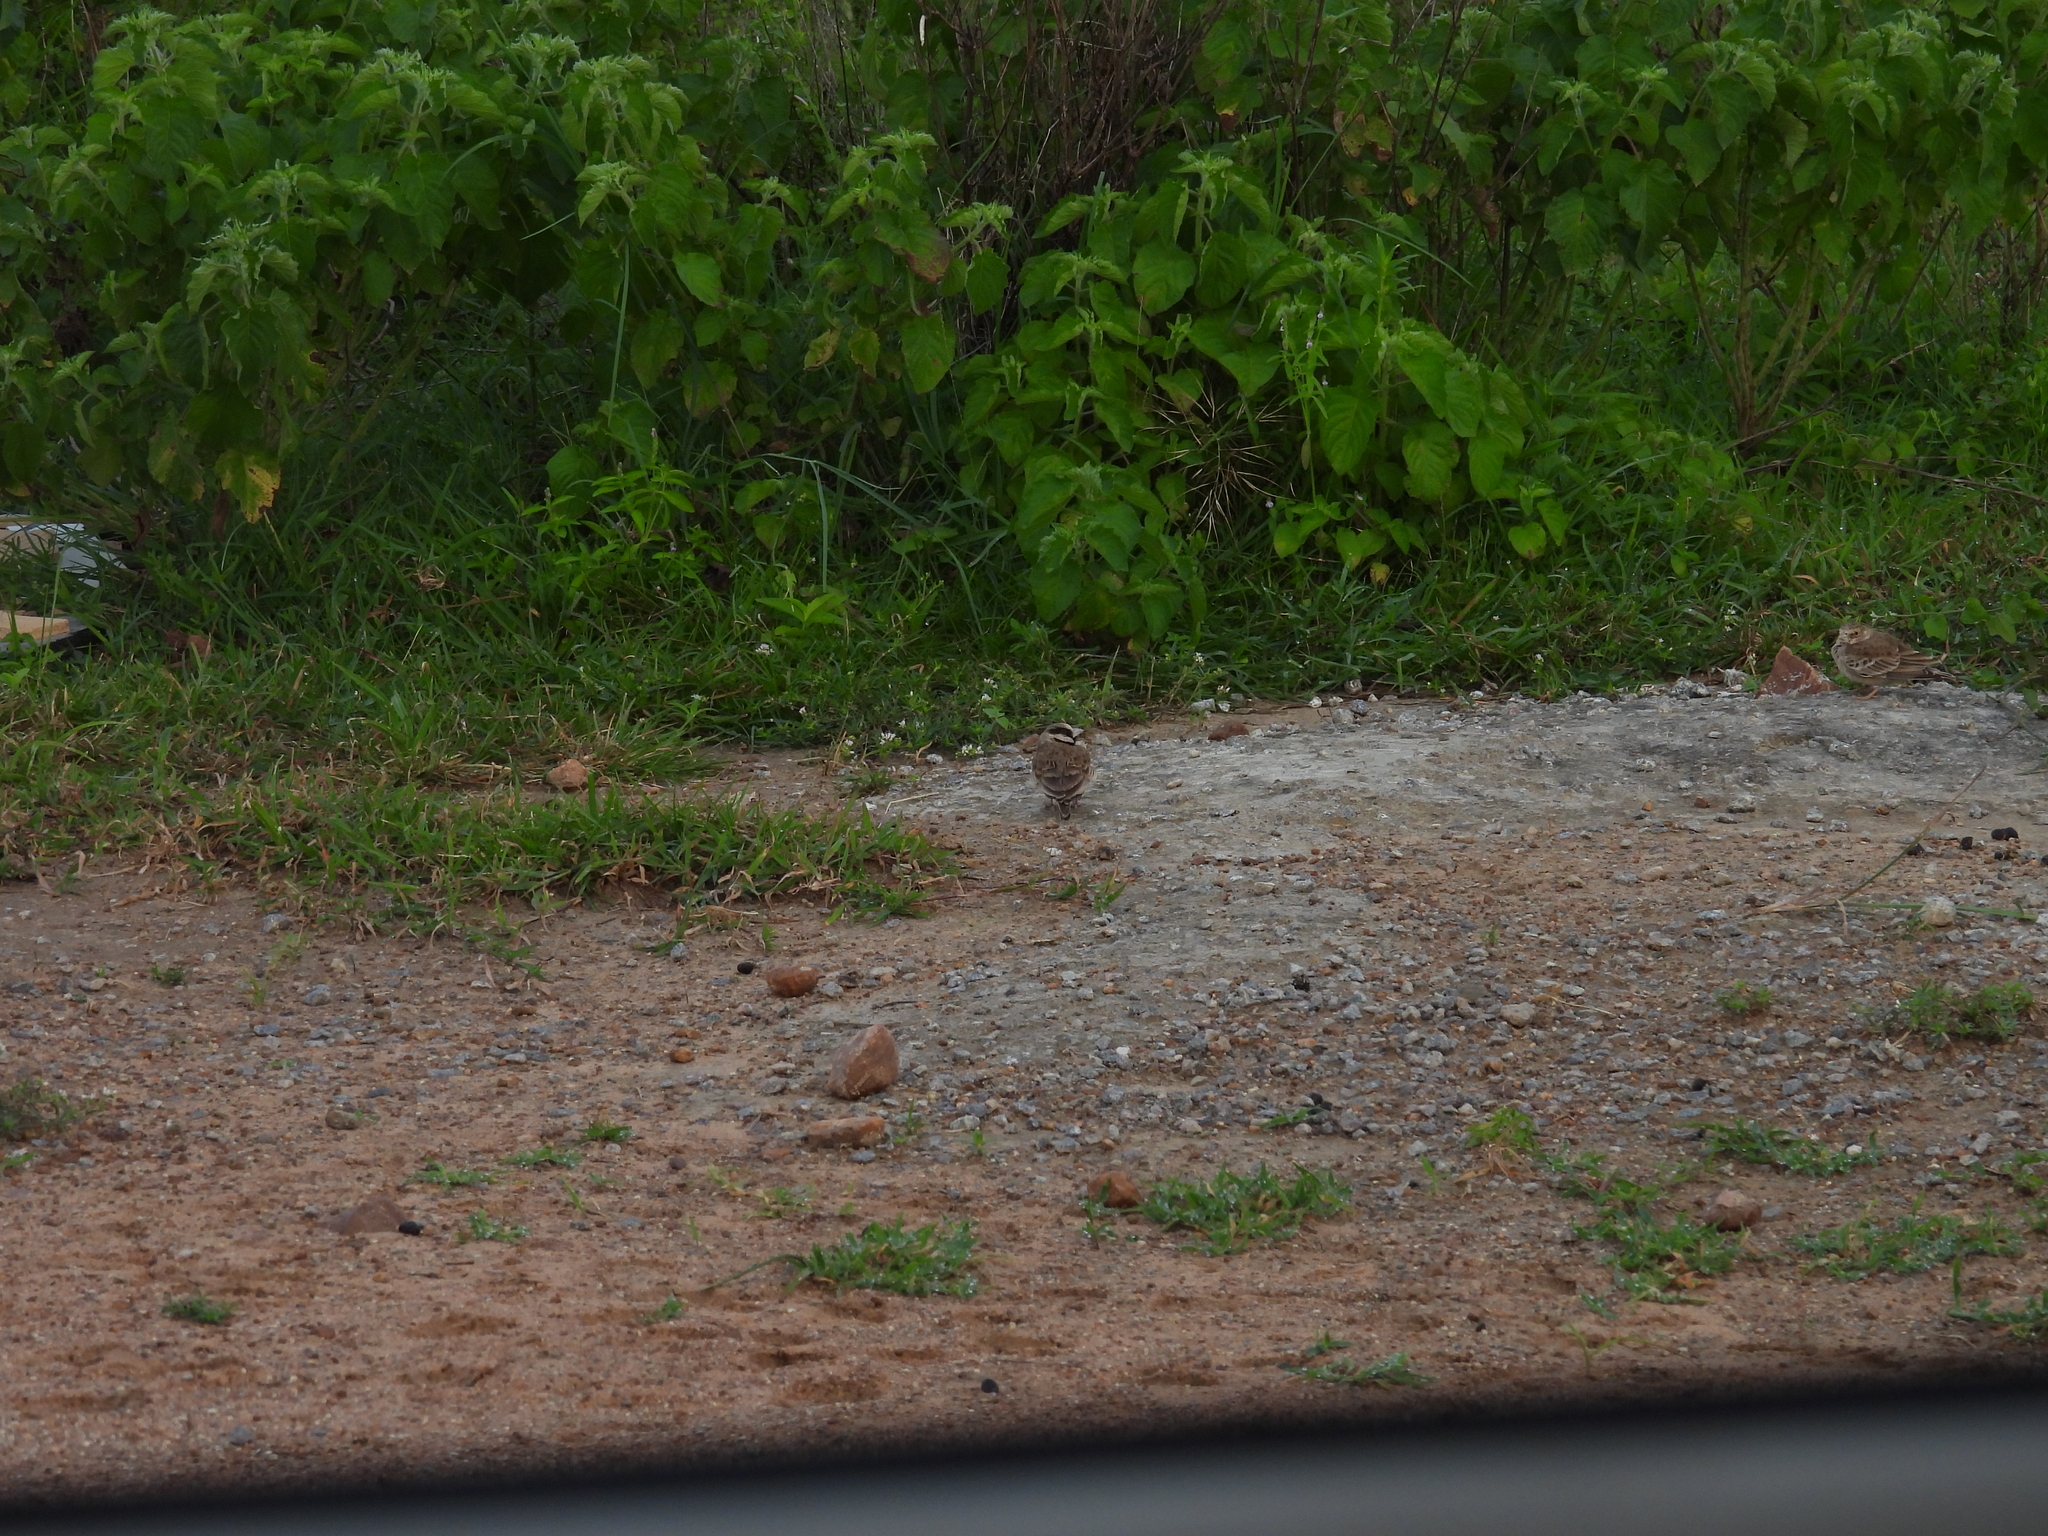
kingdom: Animalia
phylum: Chordata
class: Aves
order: Passeriformes
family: Alaudidae
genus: Eremopterix
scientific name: Eremopterix griseus
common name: Ashy-crowned sparrow-lark
